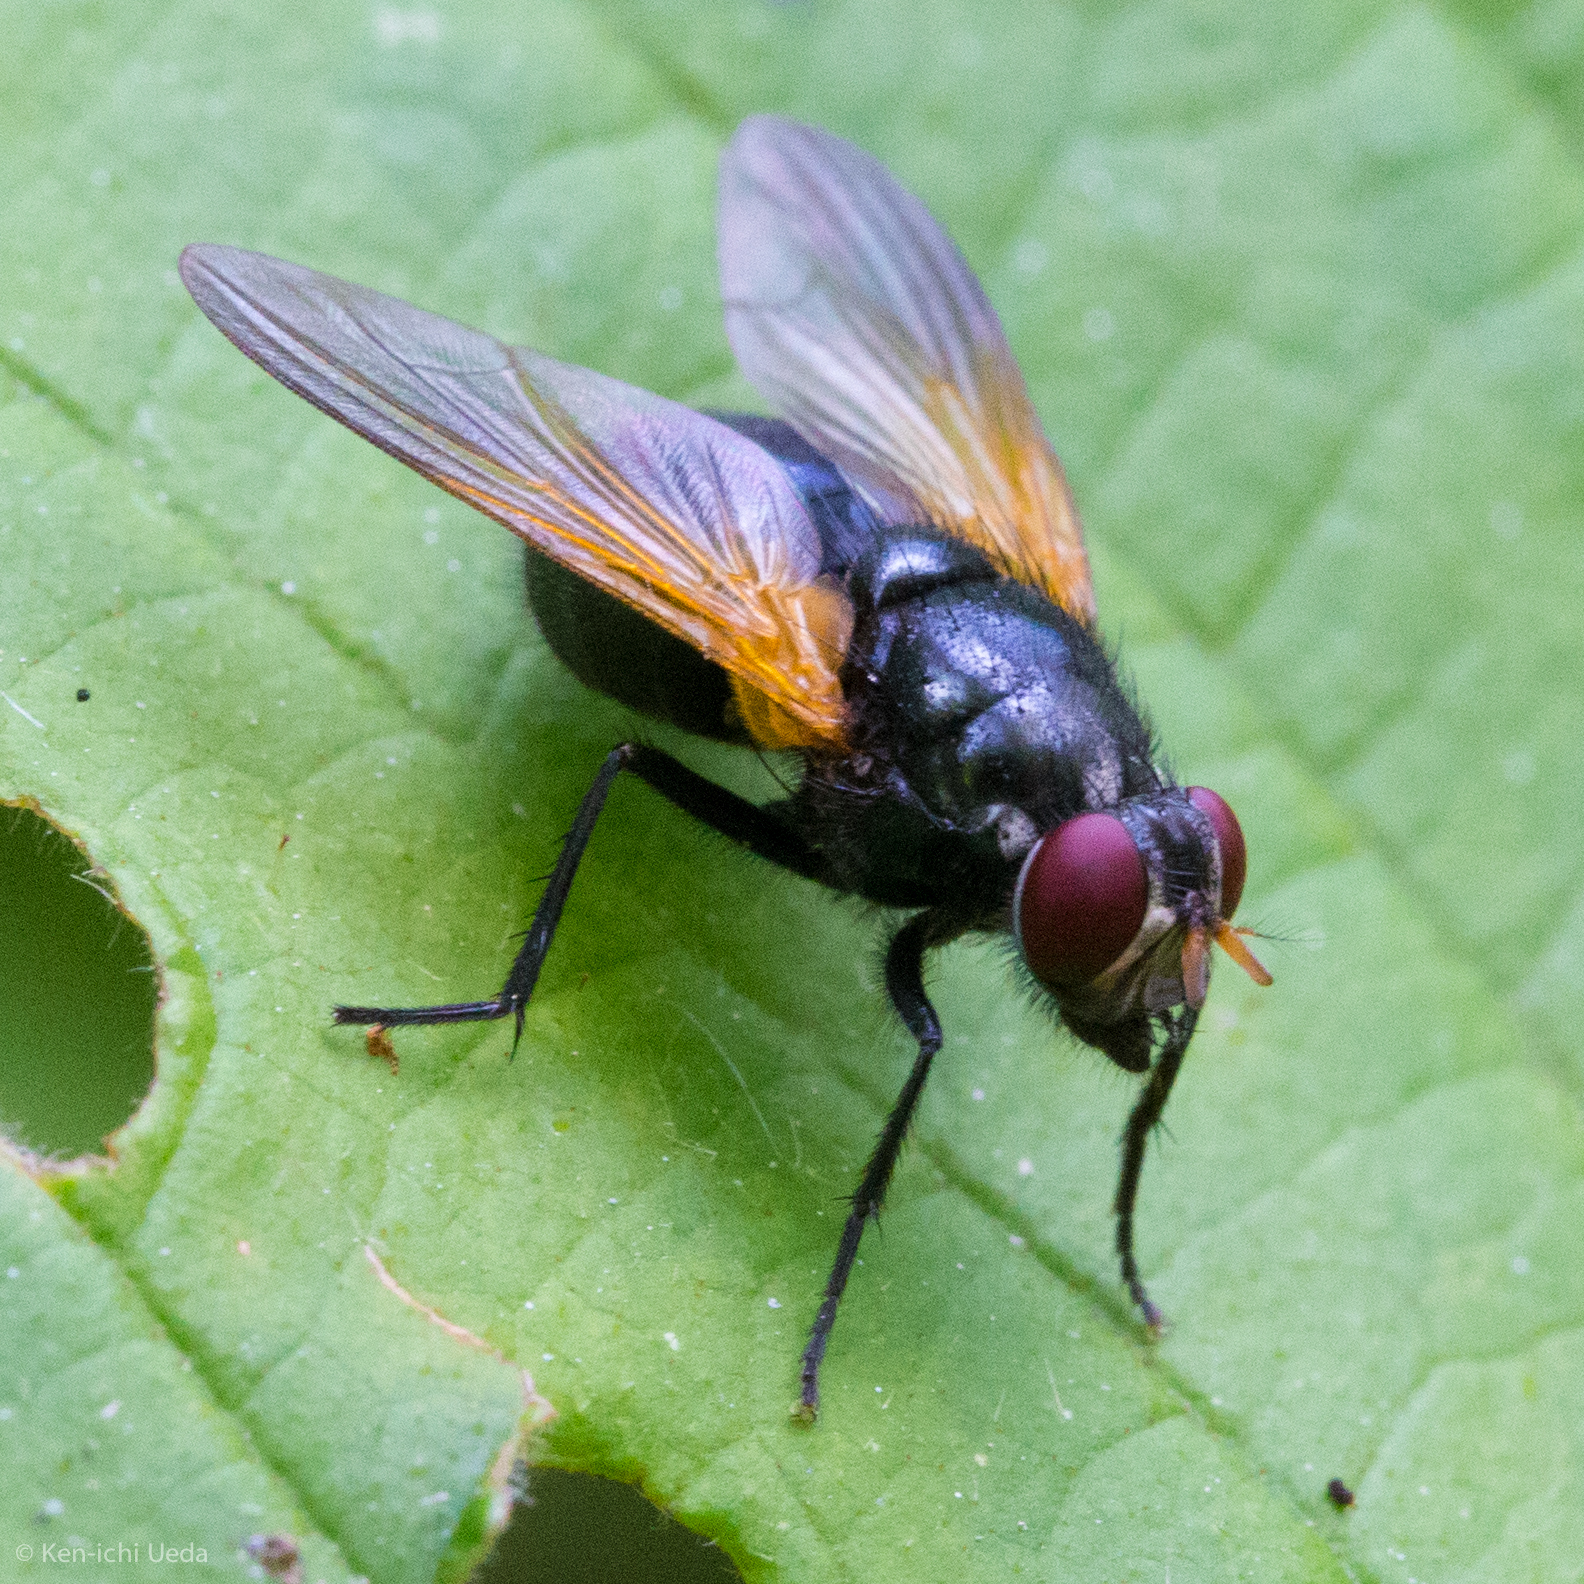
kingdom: Animalia
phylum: Arthropoda
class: Insecta
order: Diptera
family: Muscidae
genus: Mesembrina
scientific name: Mesembrina latreillii
